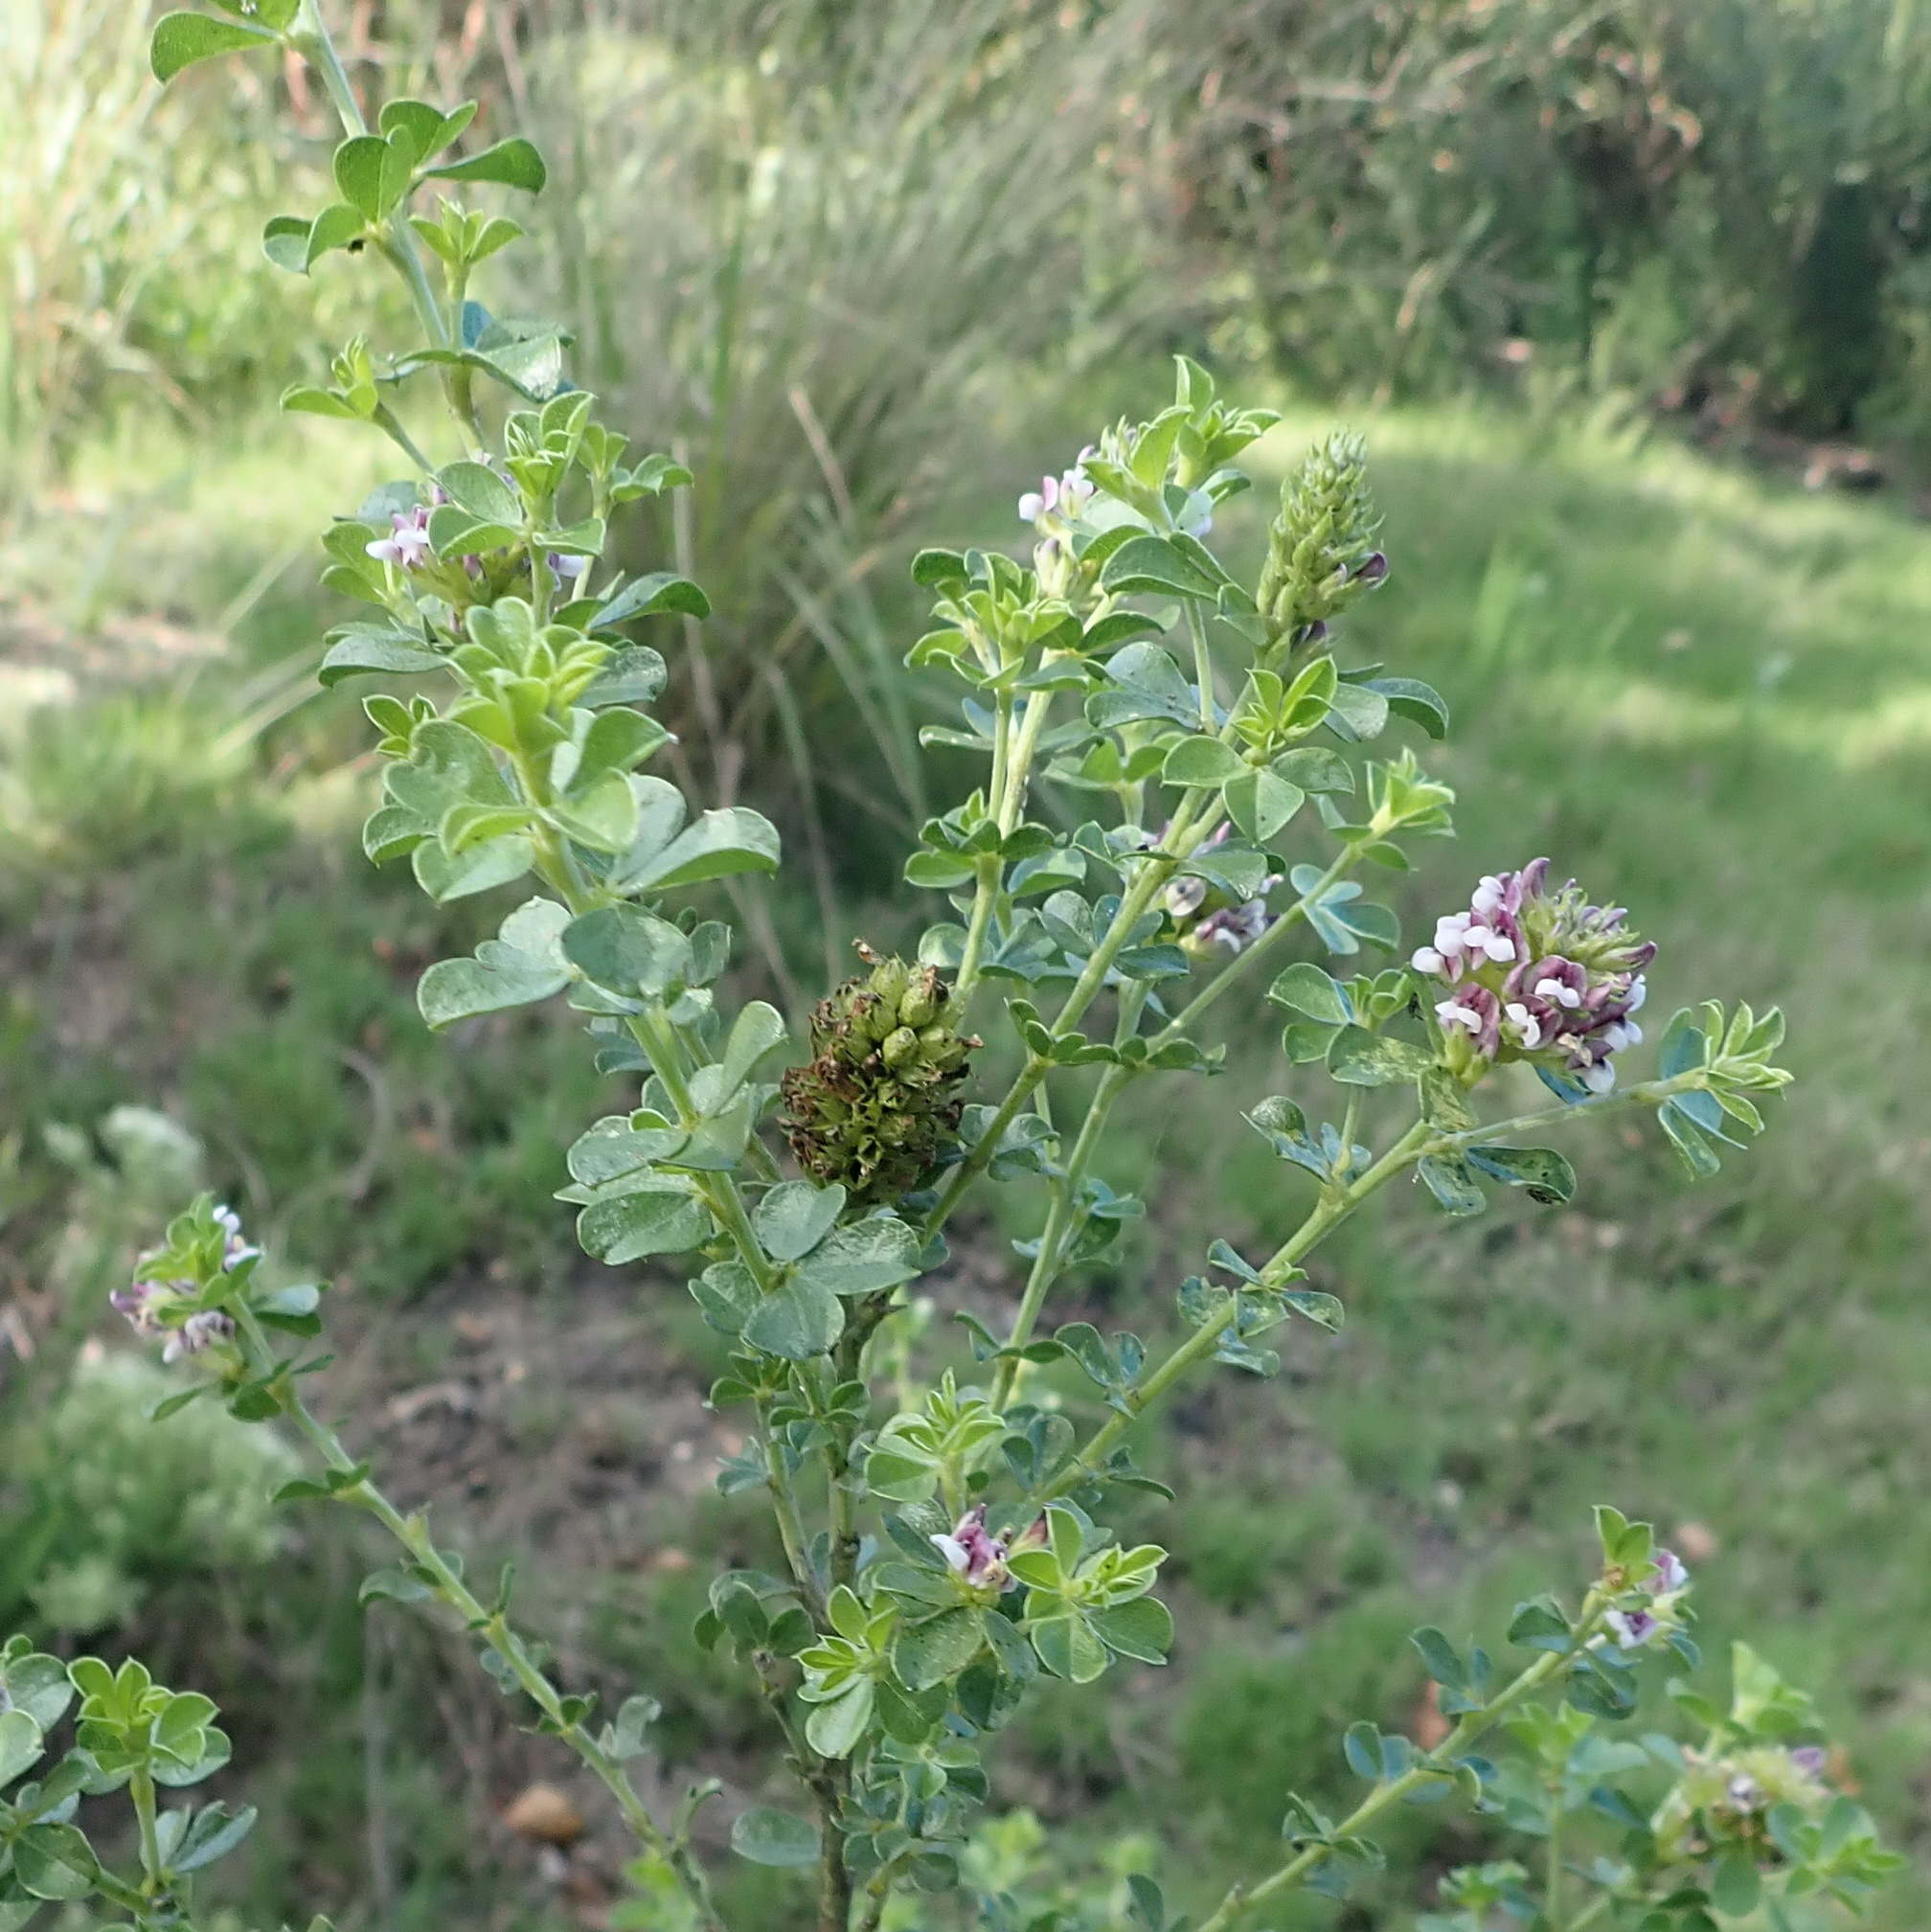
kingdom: Plantae
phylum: Tracheophyta
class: Magnoliopsida
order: Fabales
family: Fabaceae
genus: Psoralea
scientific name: Psoralea stachyera
